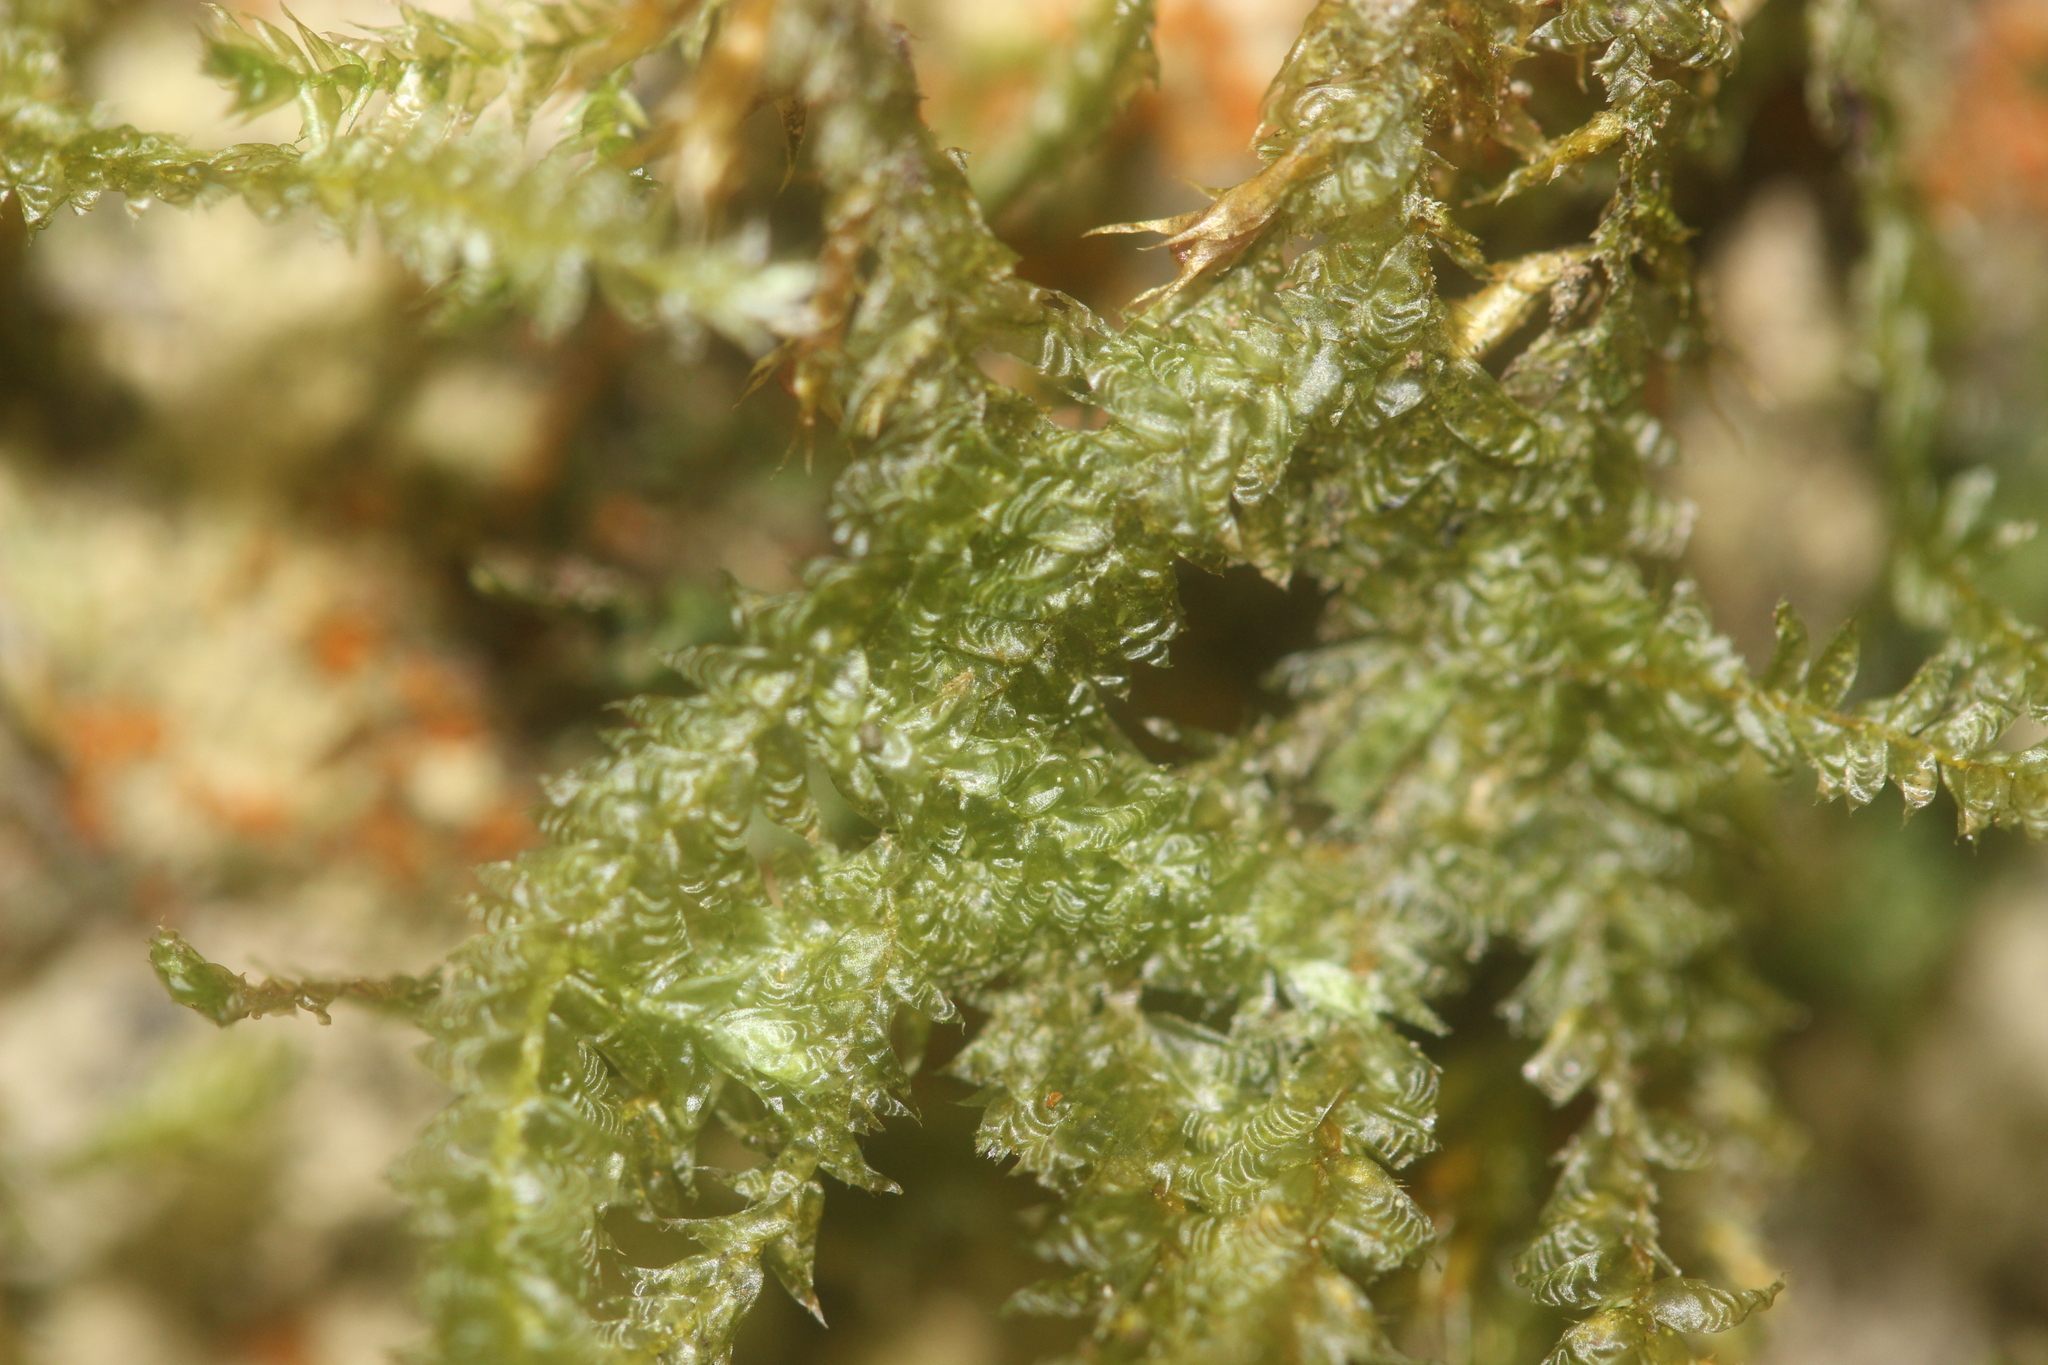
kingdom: Plantae
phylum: Bryophyta
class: Bryopsida
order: Hypnales
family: Neckeraceae
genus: Alleniella
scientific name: Alleniella hymenodonta
